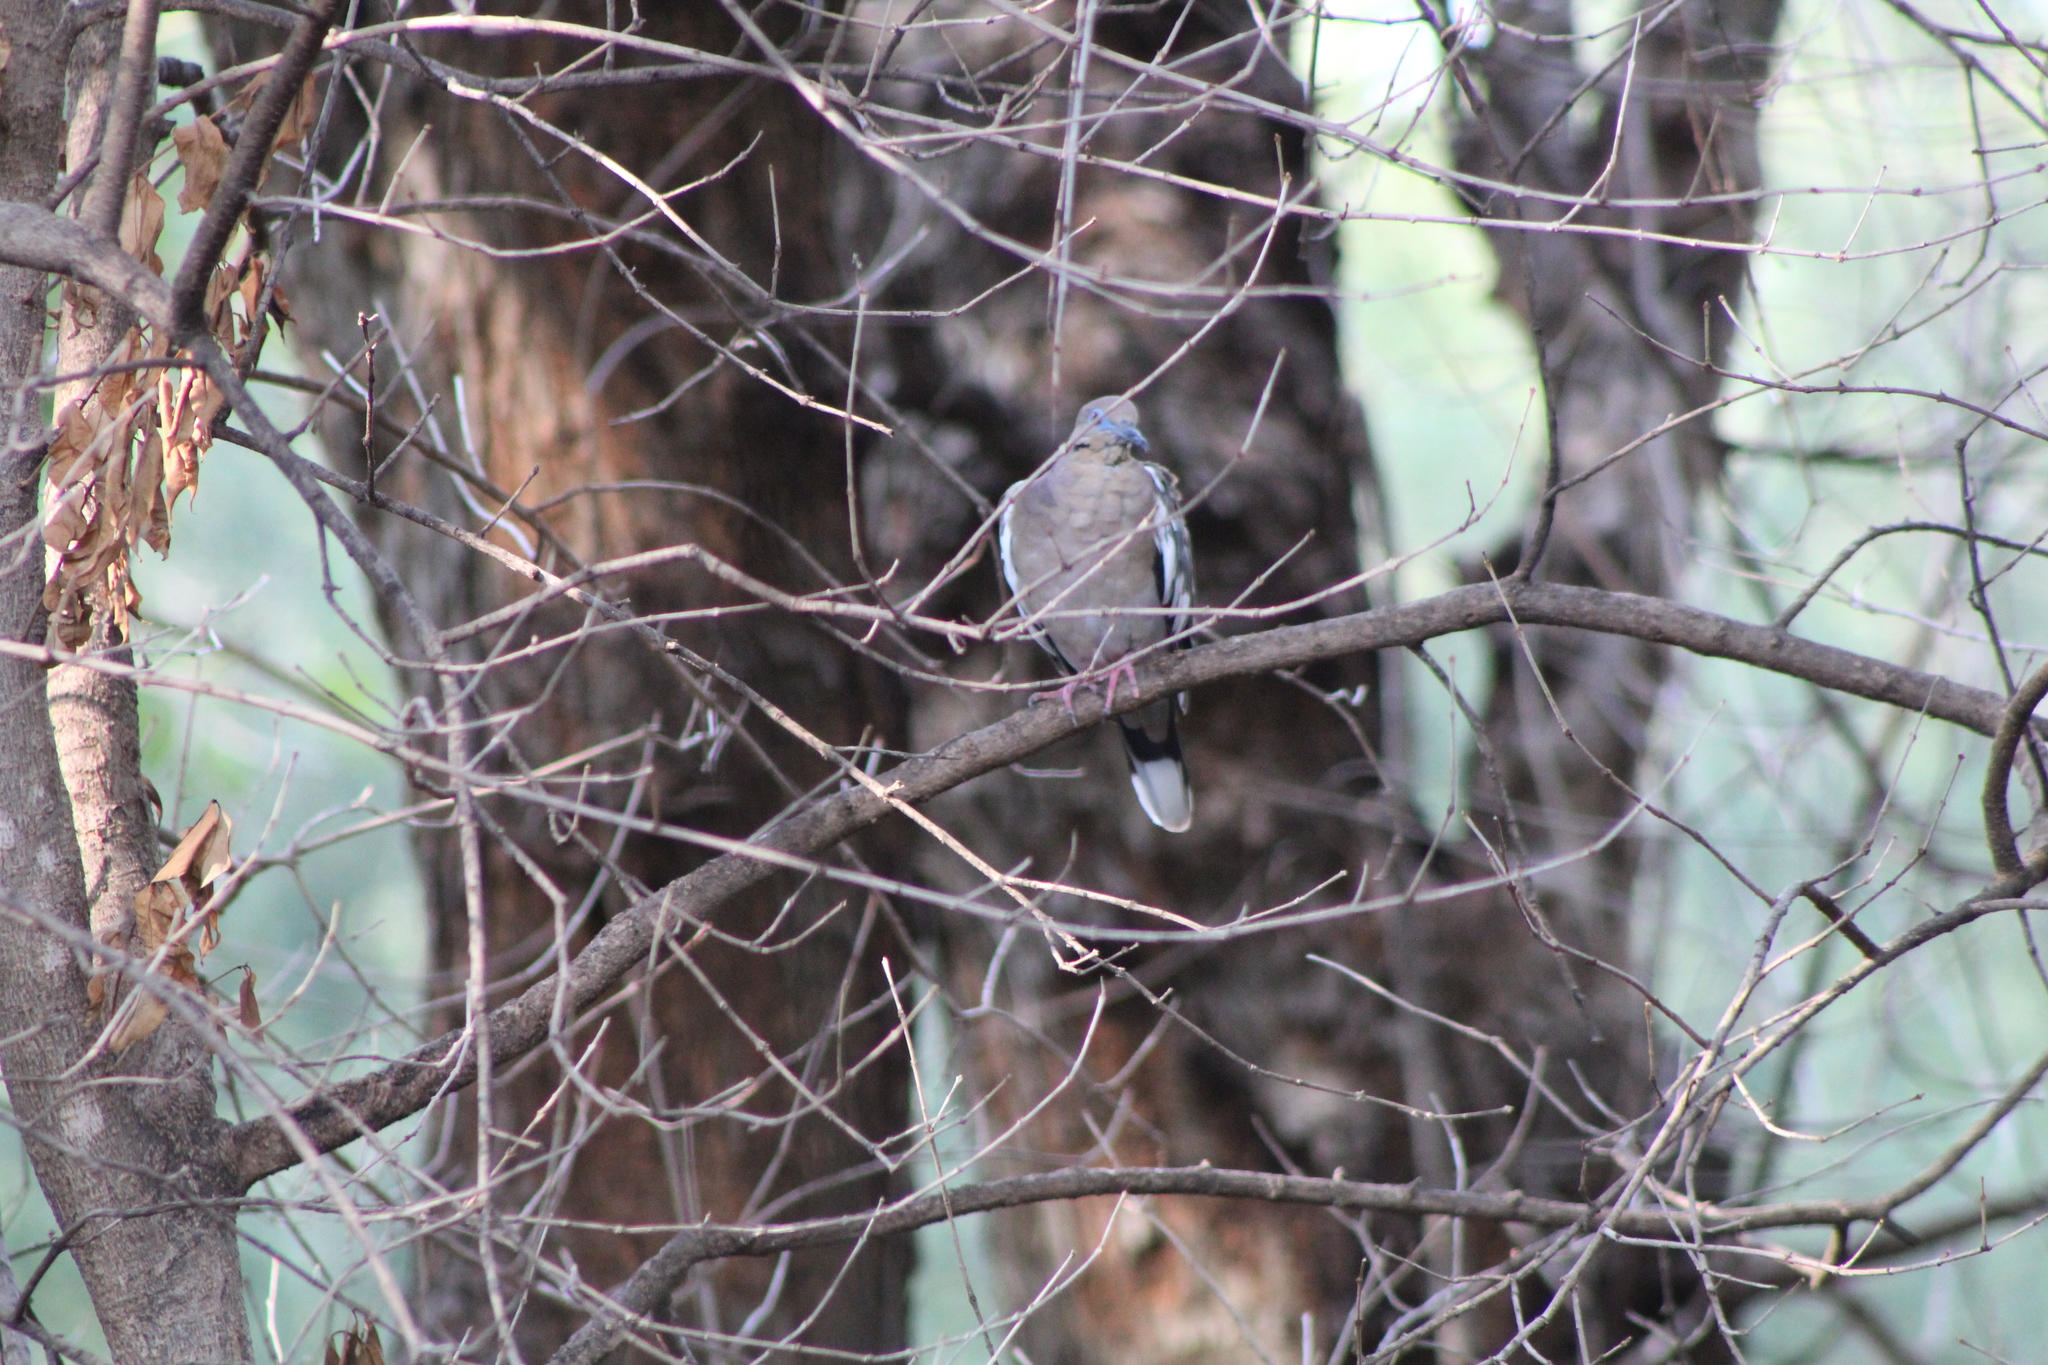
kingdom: Animalia
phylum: Chordata
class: Aves
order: Columbiformes
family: Columbidae
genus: Zenaida
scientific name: Zenaida asiatica
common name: White-winged dove
